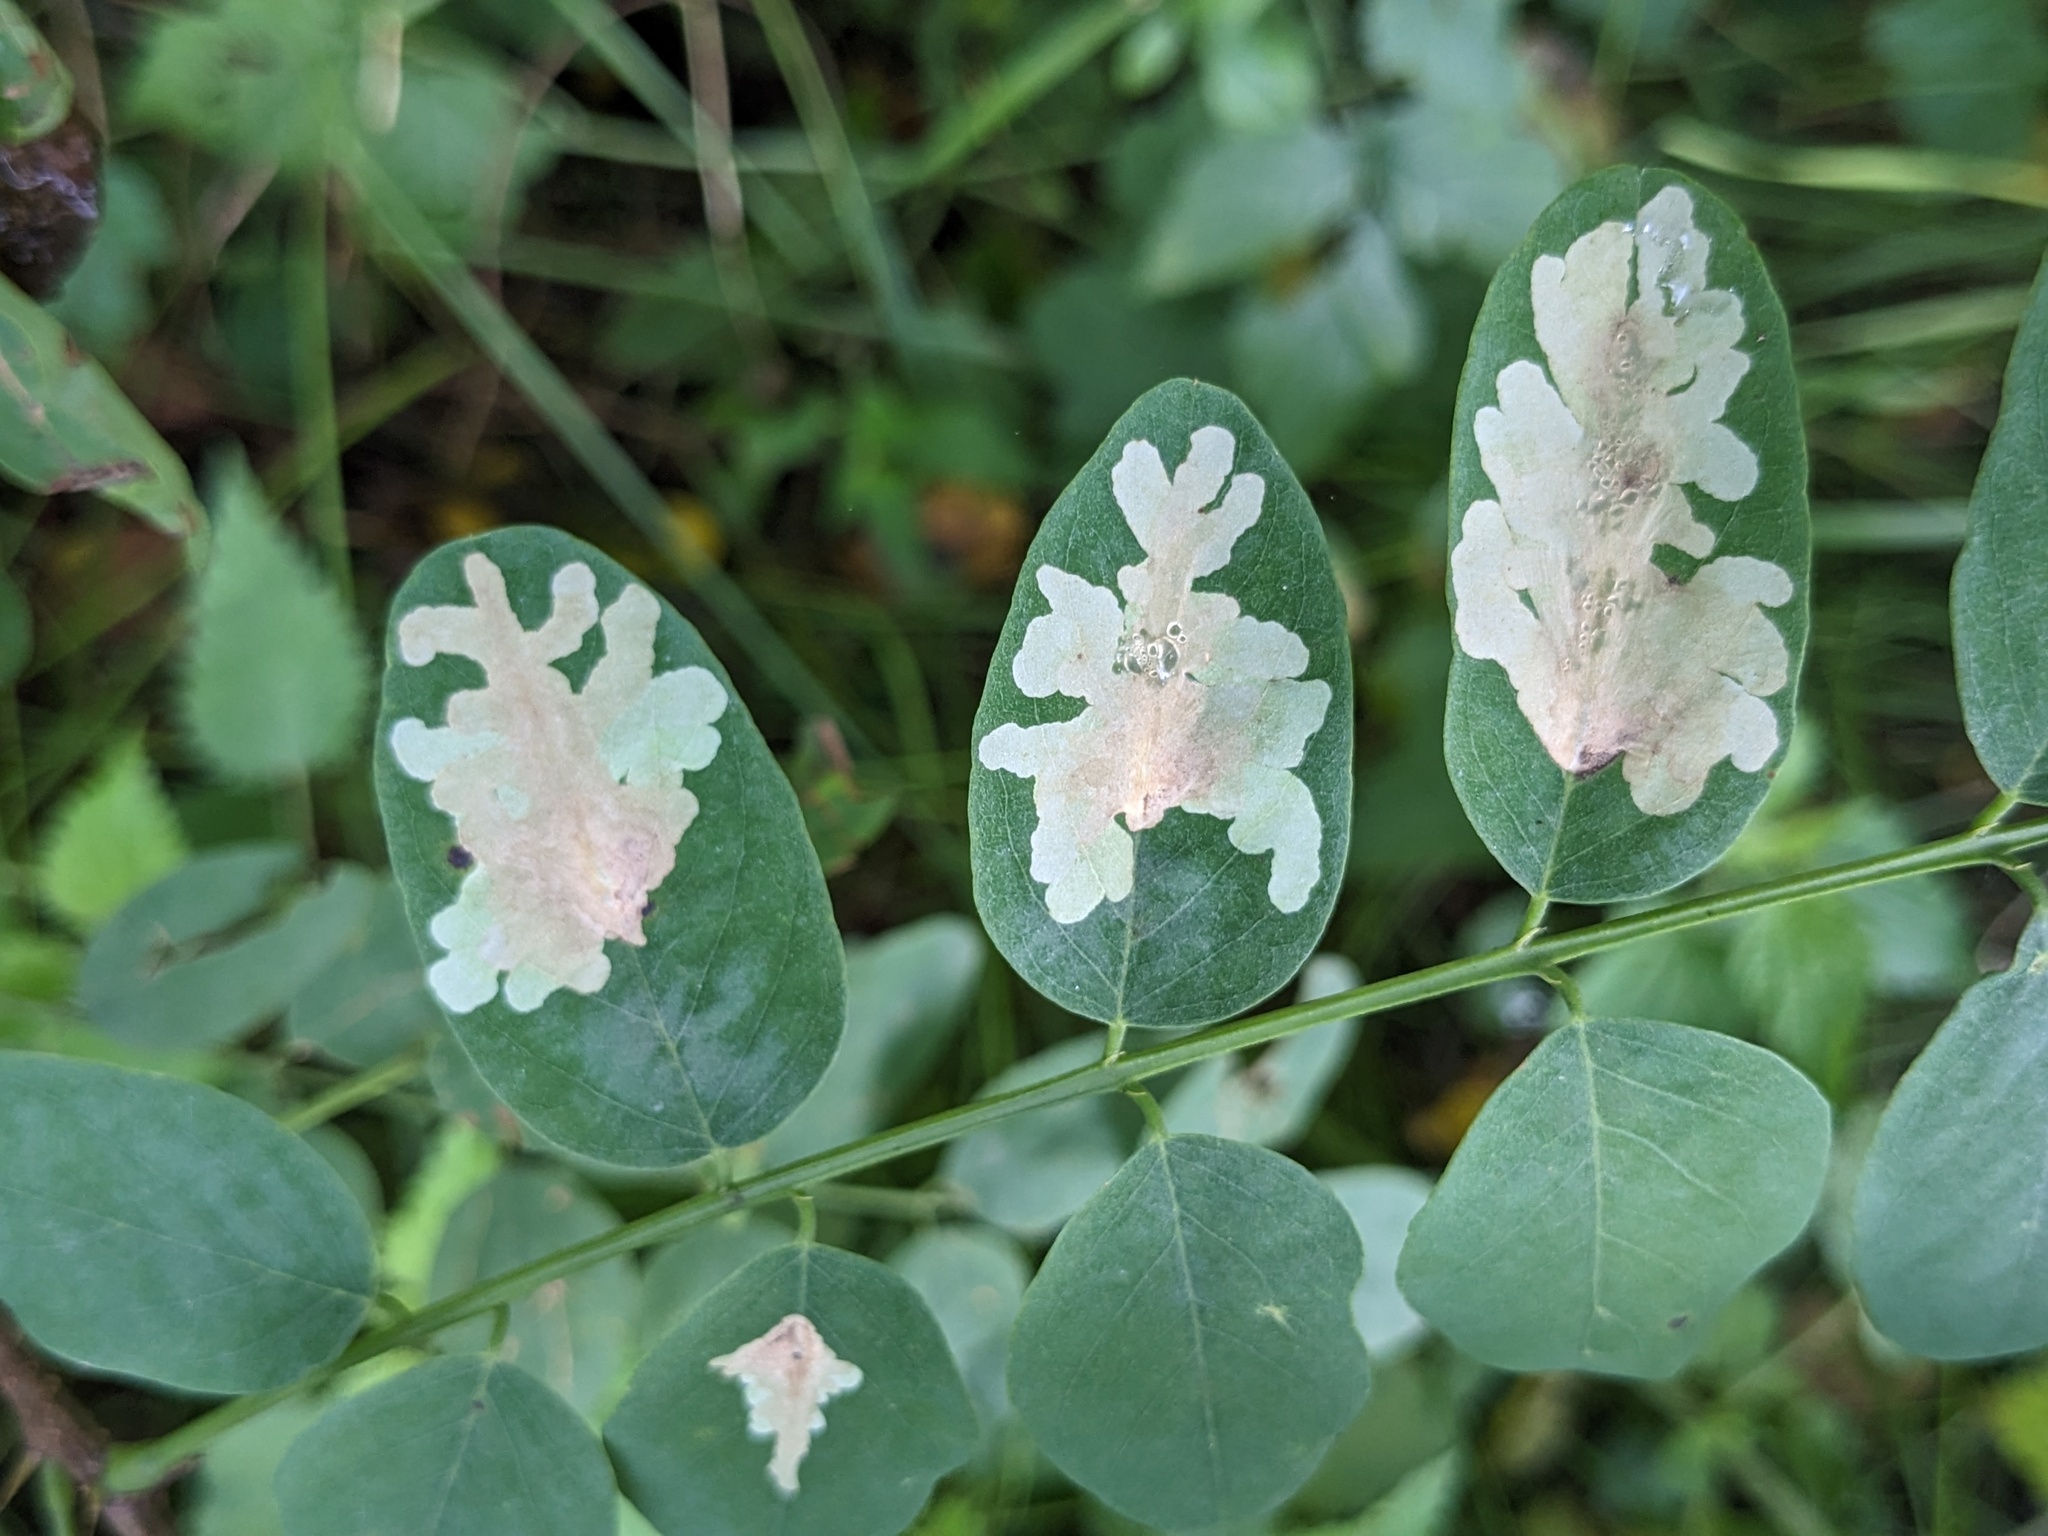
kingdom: Animalia
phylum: Arthropoda
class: Insecta
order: Lepidoptera
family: Gracillariidae
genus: Parectopa
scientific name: Parectopa robiniella
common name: Locust digitate leafminer
